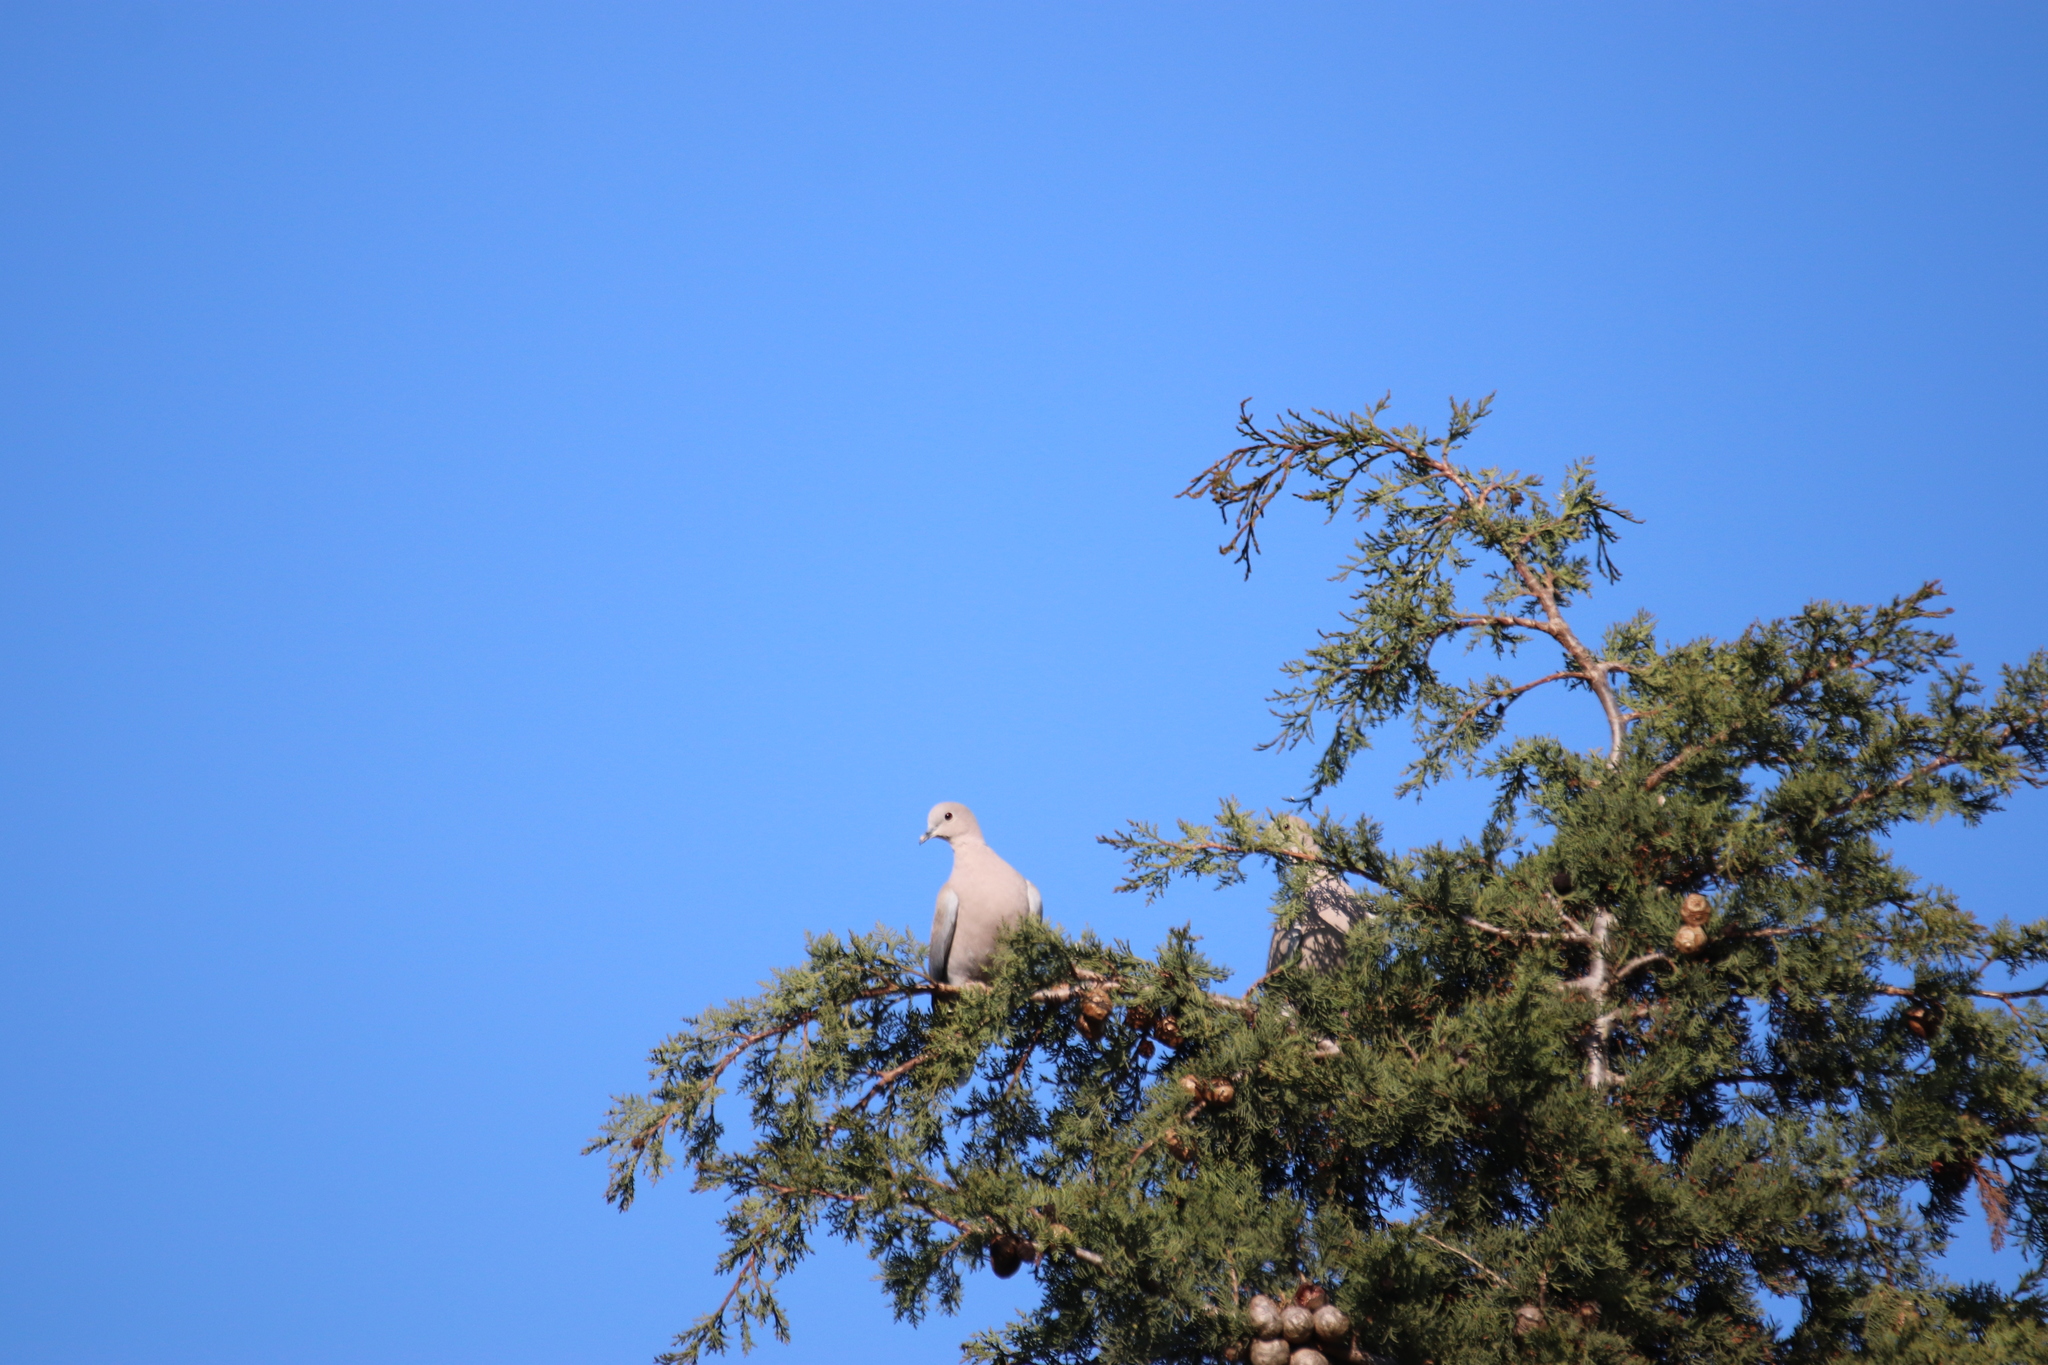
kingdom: Animalia
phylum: Chordata
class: Aves
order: Columbiformes
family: Columbidae
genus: Streptopelia
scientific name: Streptopelia decaocto
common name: Eurasian collared dove
